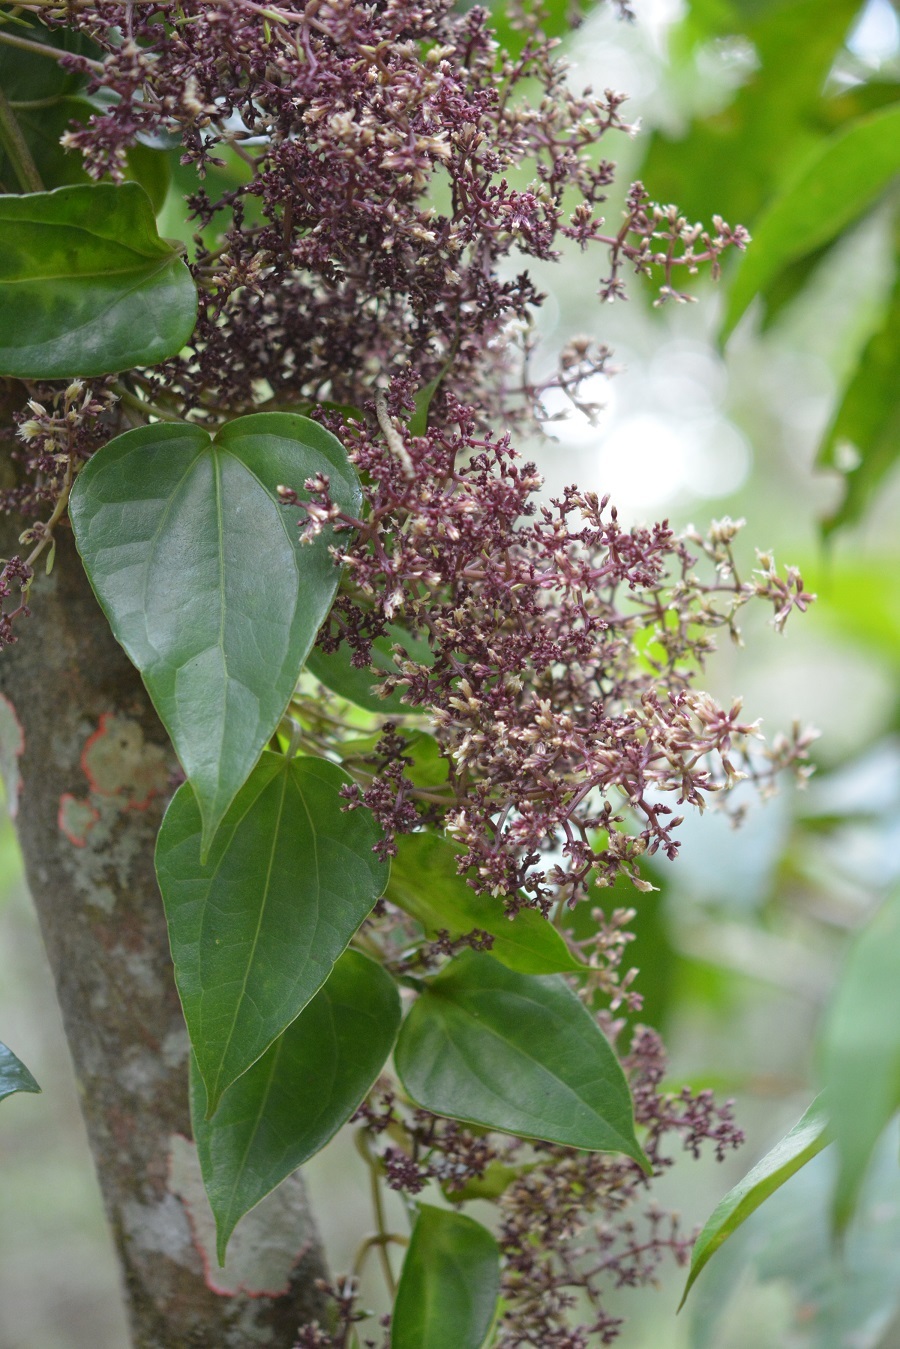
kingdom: Plantae
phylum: Tracheophyta
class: Magnoliopsida
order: Asterales
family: Asteraceae
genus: Mikania
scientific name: Mikania leiostachya
